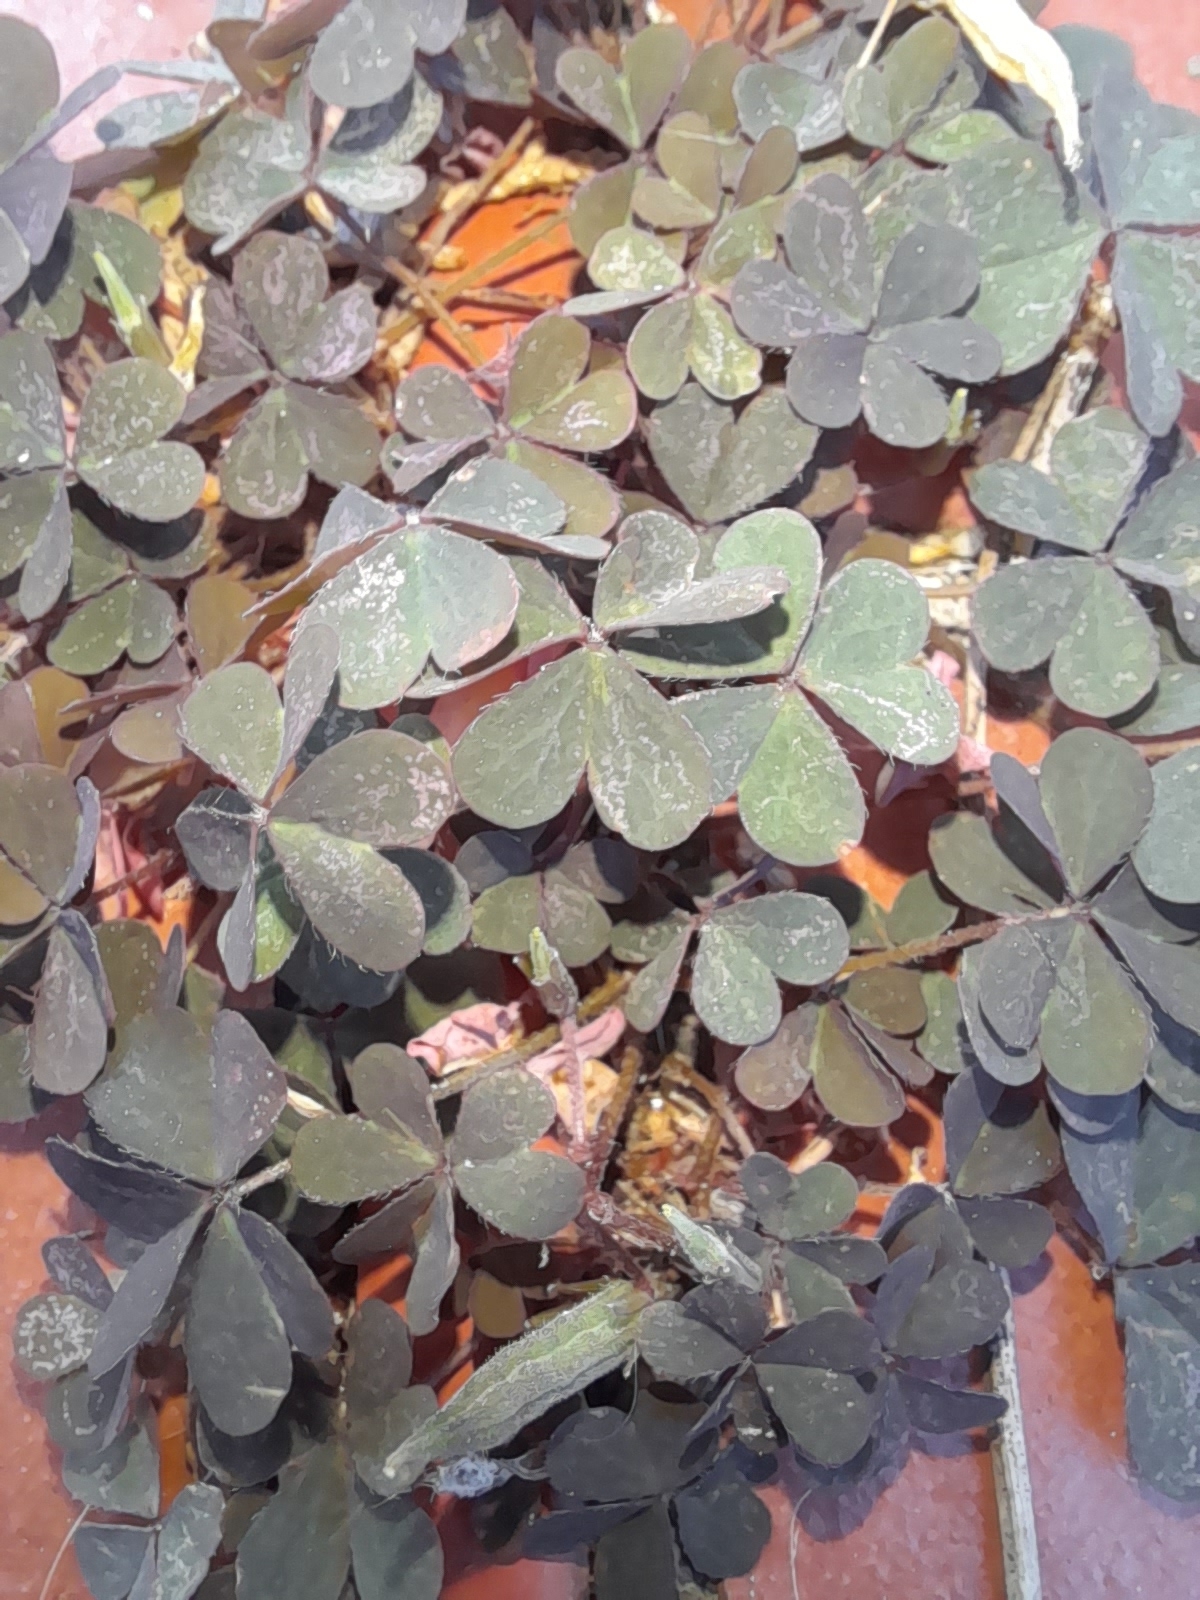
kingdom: Plantae
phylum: Tracheophyta
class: Magnoliopsida
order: Oxalidales
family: Oxalidaceae
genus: Oxalis
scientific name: Oxalis corniculata
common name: Procumbent yellow-sorrel
